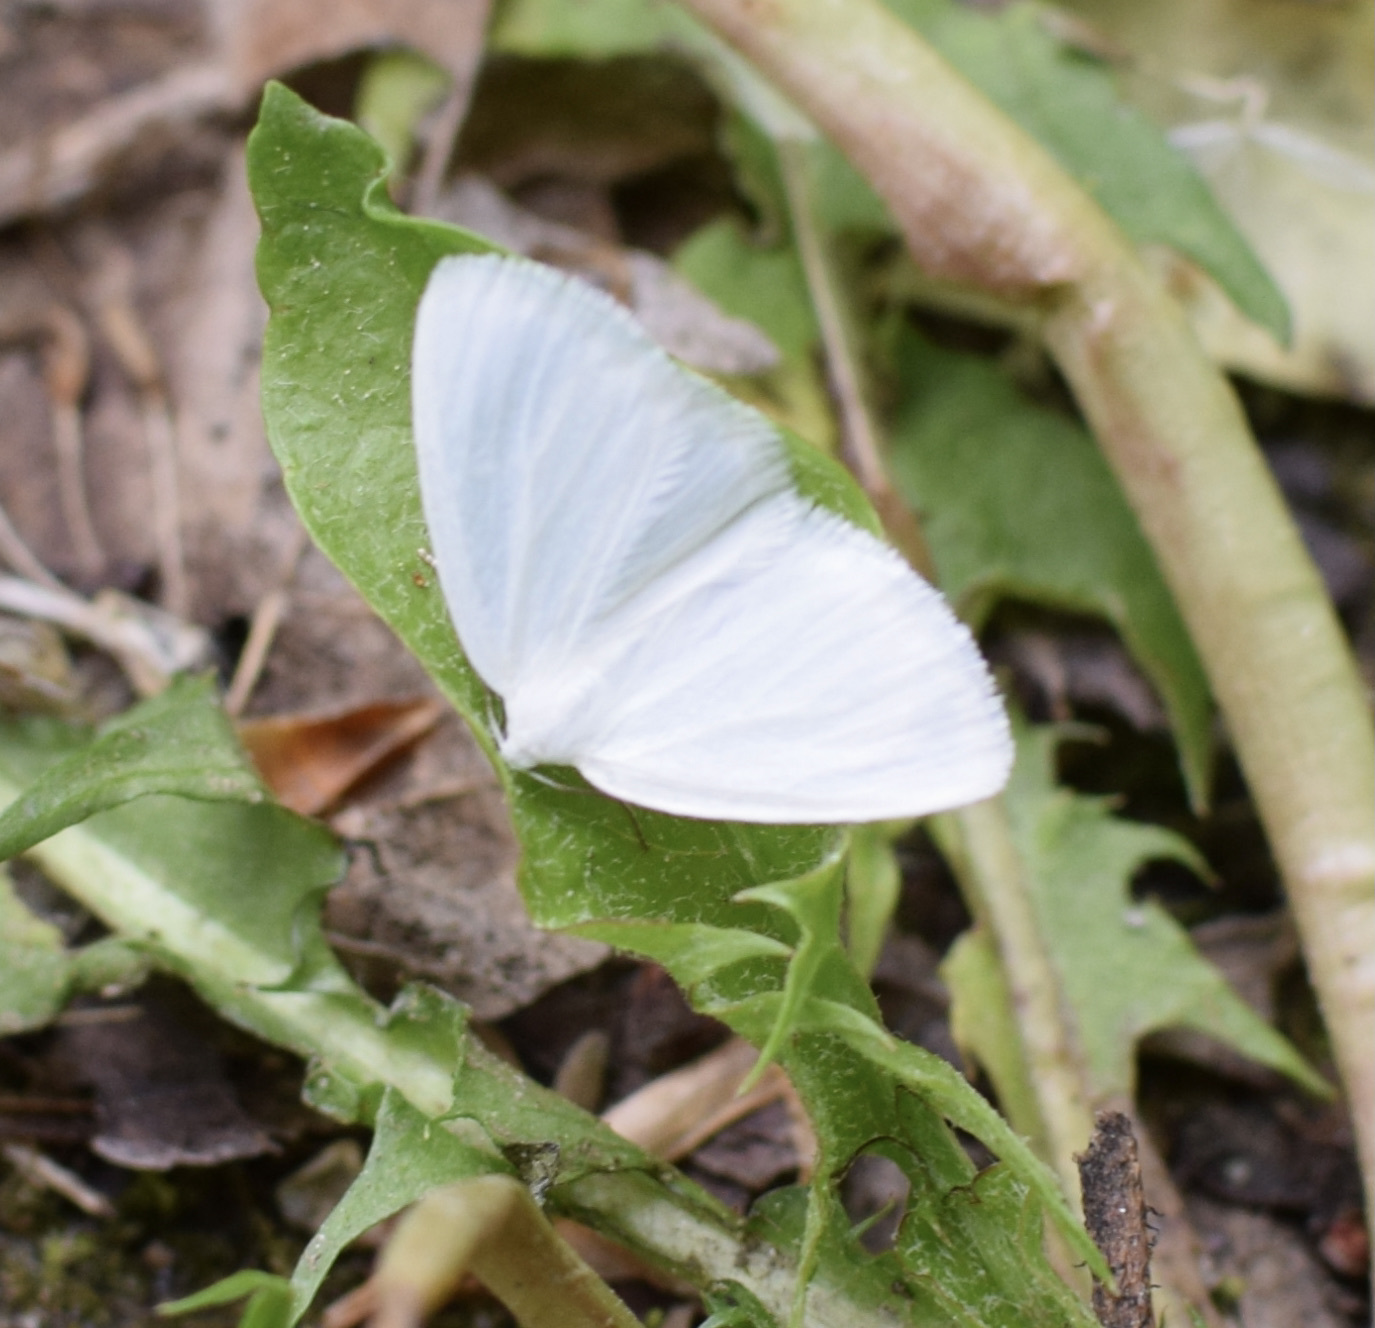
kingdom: Animalia
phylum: Arthropoda
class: Insecta
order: Lepidoptera
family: Geometridae
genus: Lomographa
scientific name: Lomographa vestaliata
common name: White spring moth
